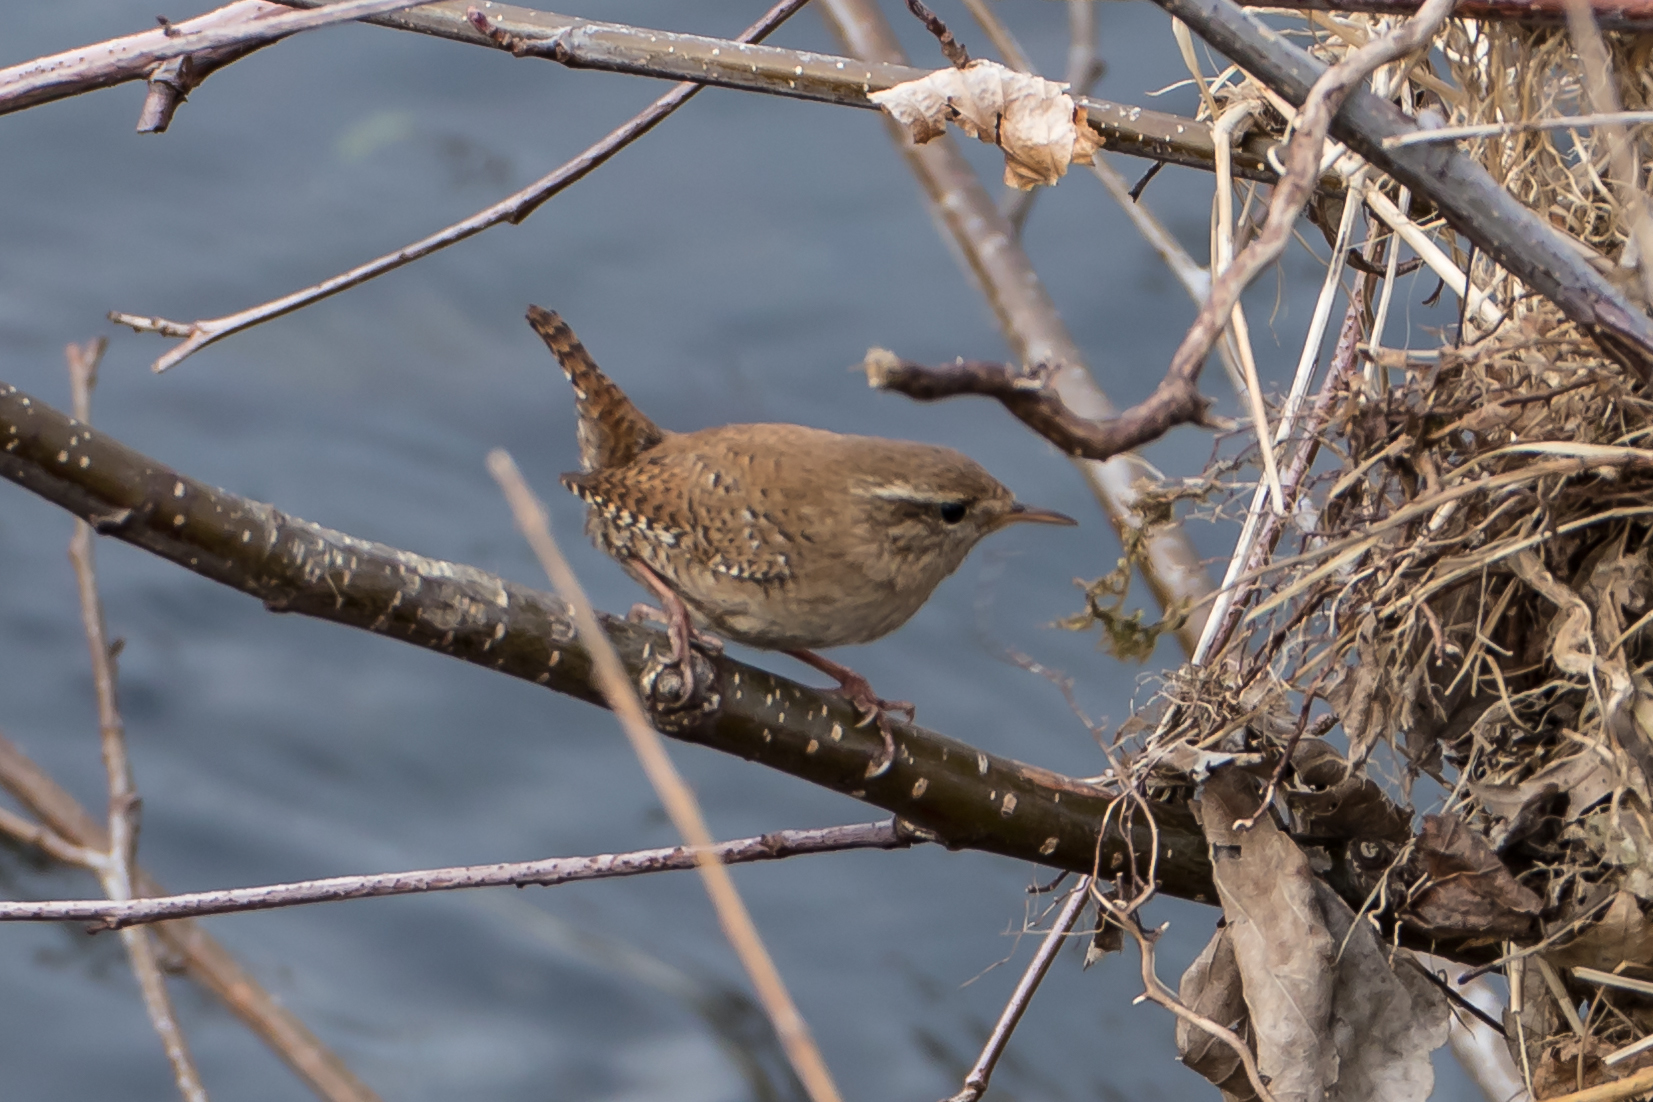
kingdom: Animalia
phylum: Chordata
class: Aves
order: Passeriformes
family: Troglodytidae
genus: Troglodytes
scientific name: Troglodytes troglodytes
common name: Eurasian wren
